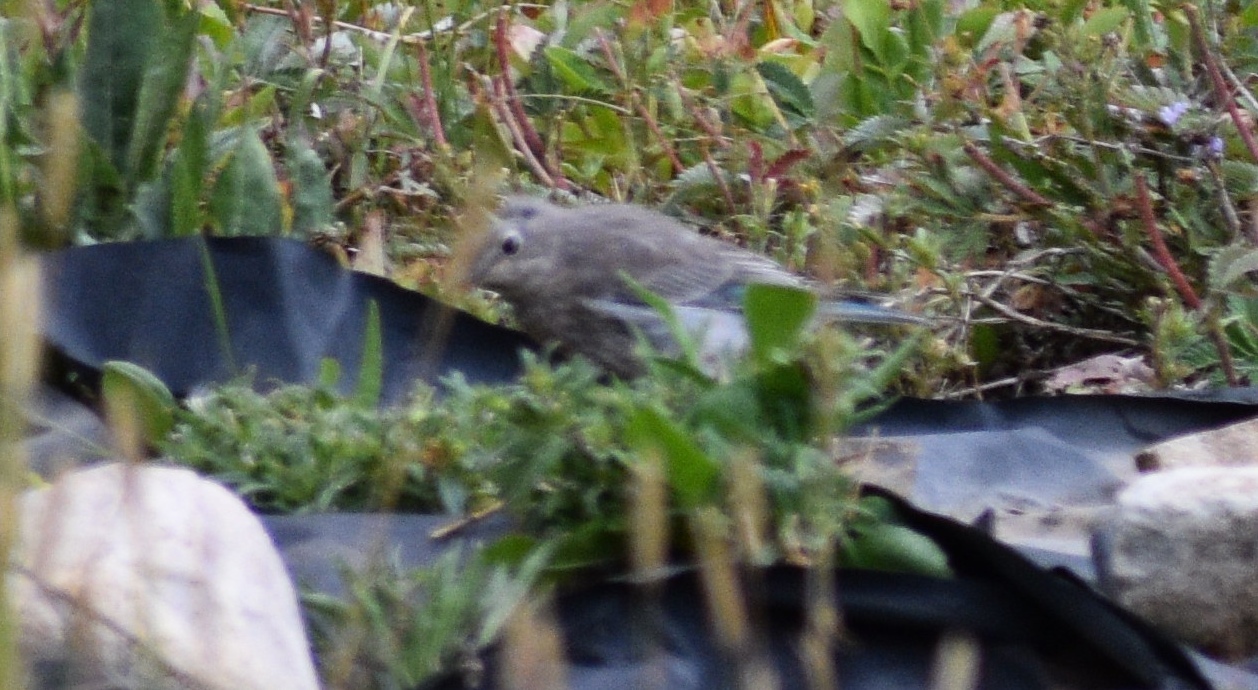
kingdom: Animalia
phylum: Chordata
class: Aves
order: Passeriformes
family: Turdidae
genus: Sialia
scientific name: Sialia currucoides
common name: Mountain bluebird
